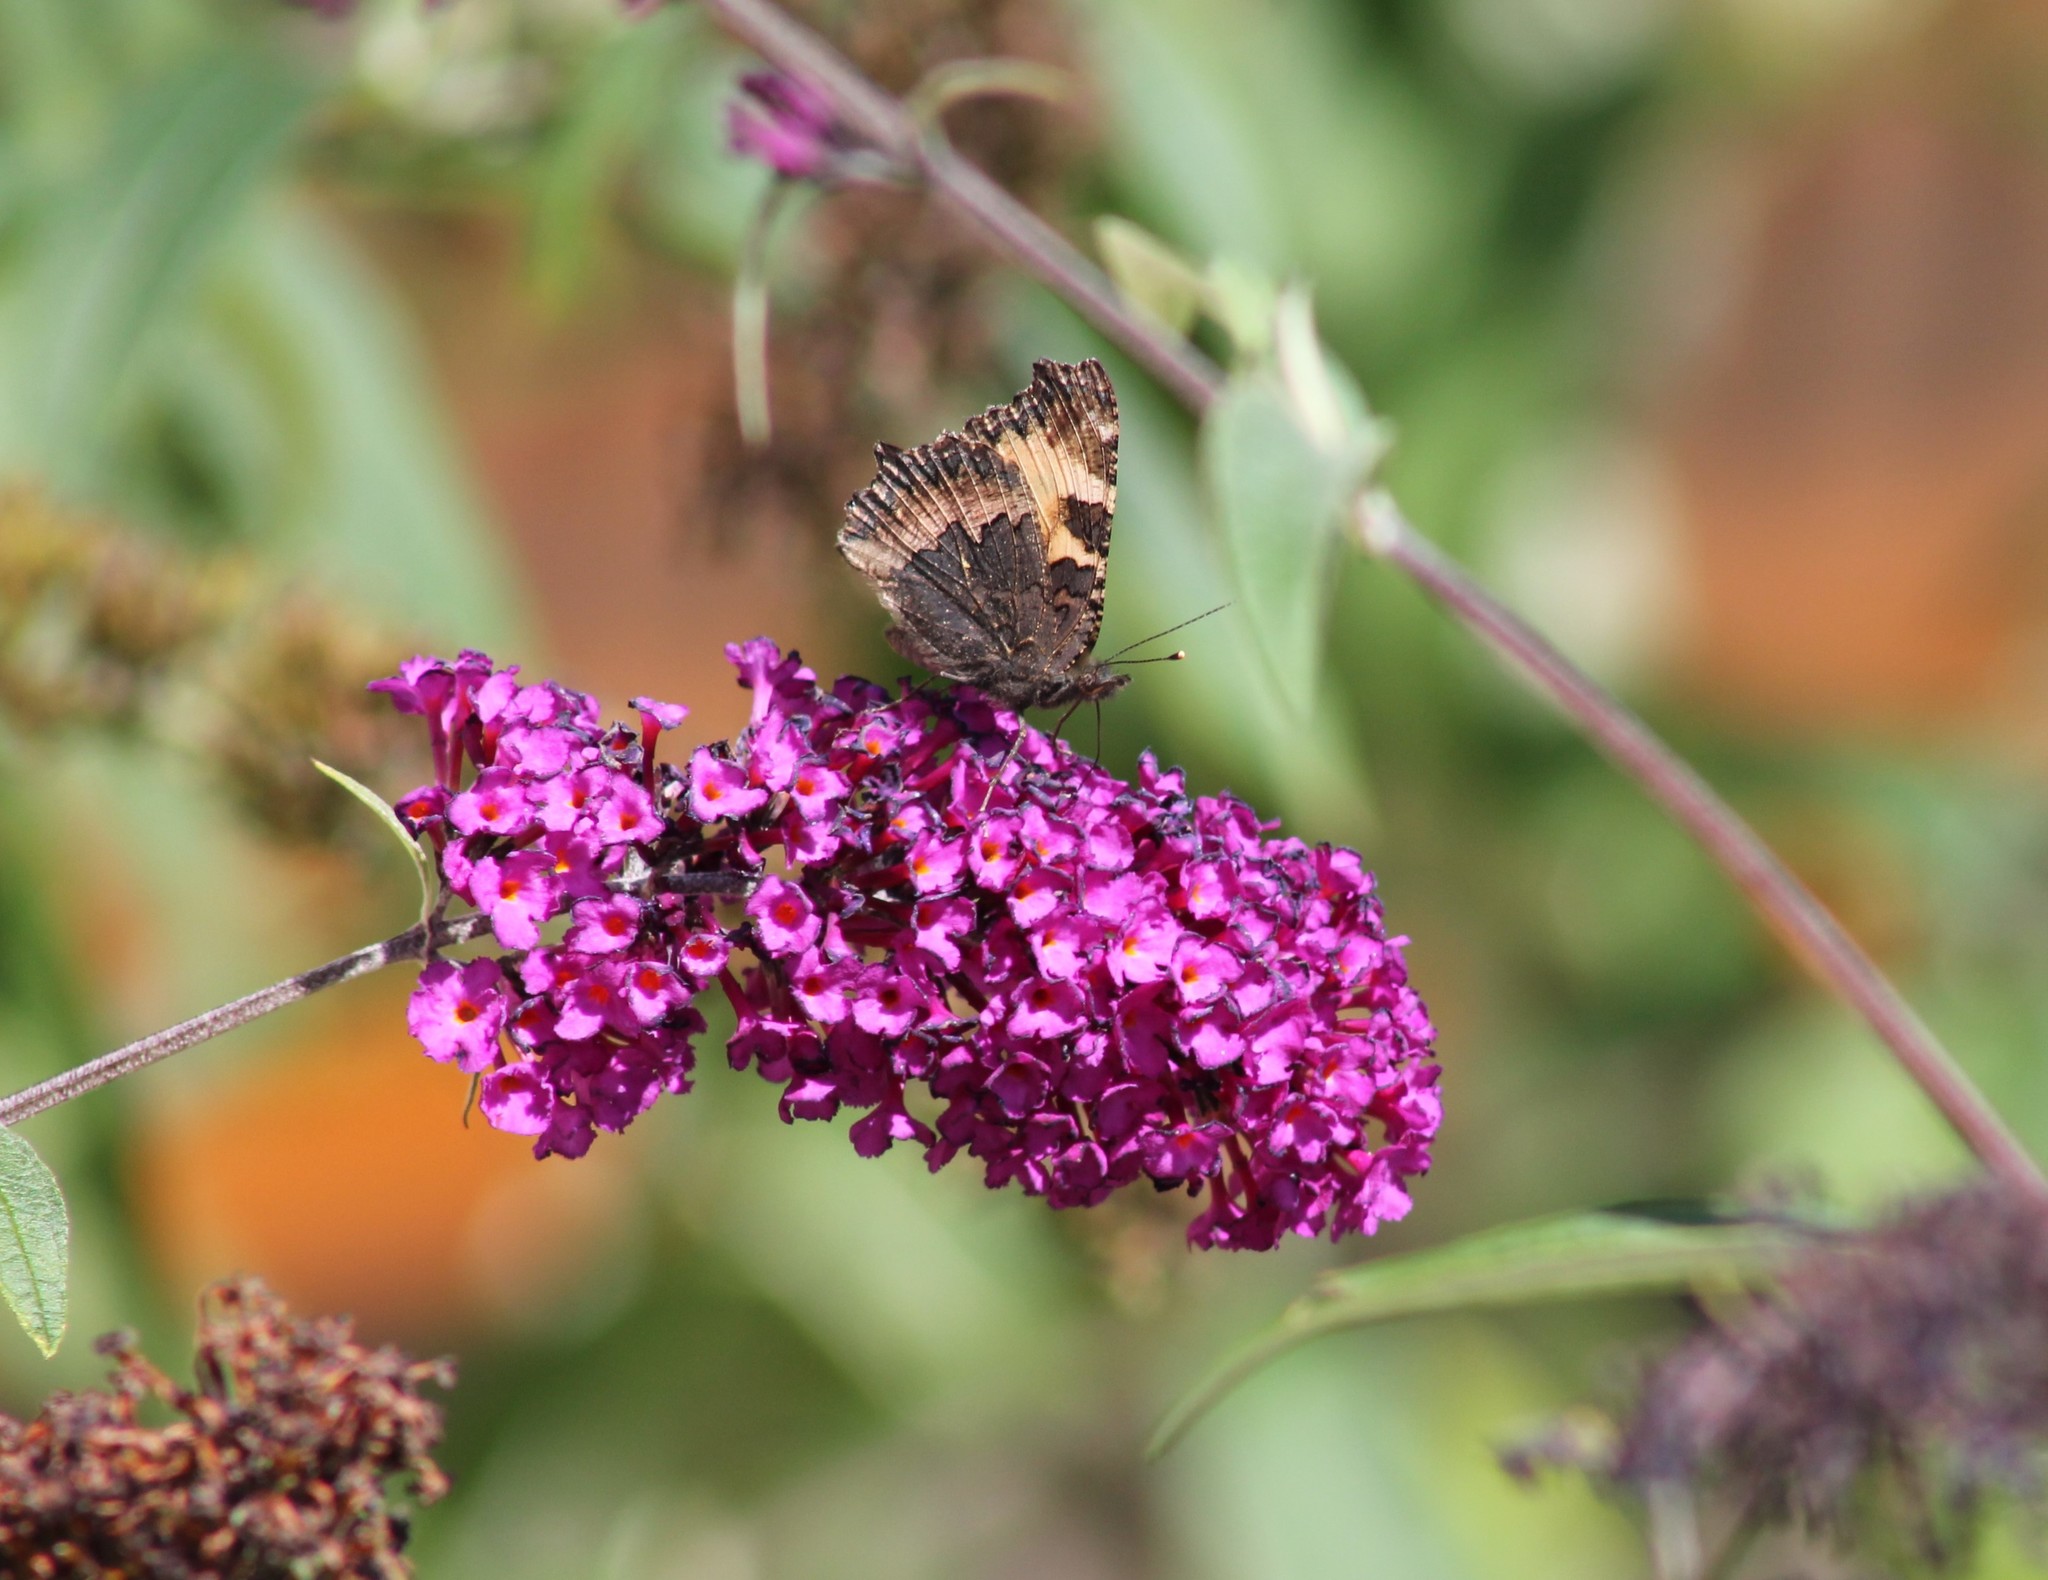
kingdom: Animalia
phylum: Arthropoda
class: Insecta
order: Lepidoptera
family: Nymphalidae
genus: Aglais
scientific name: Aglais urticae
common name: Small tortoiseshell
